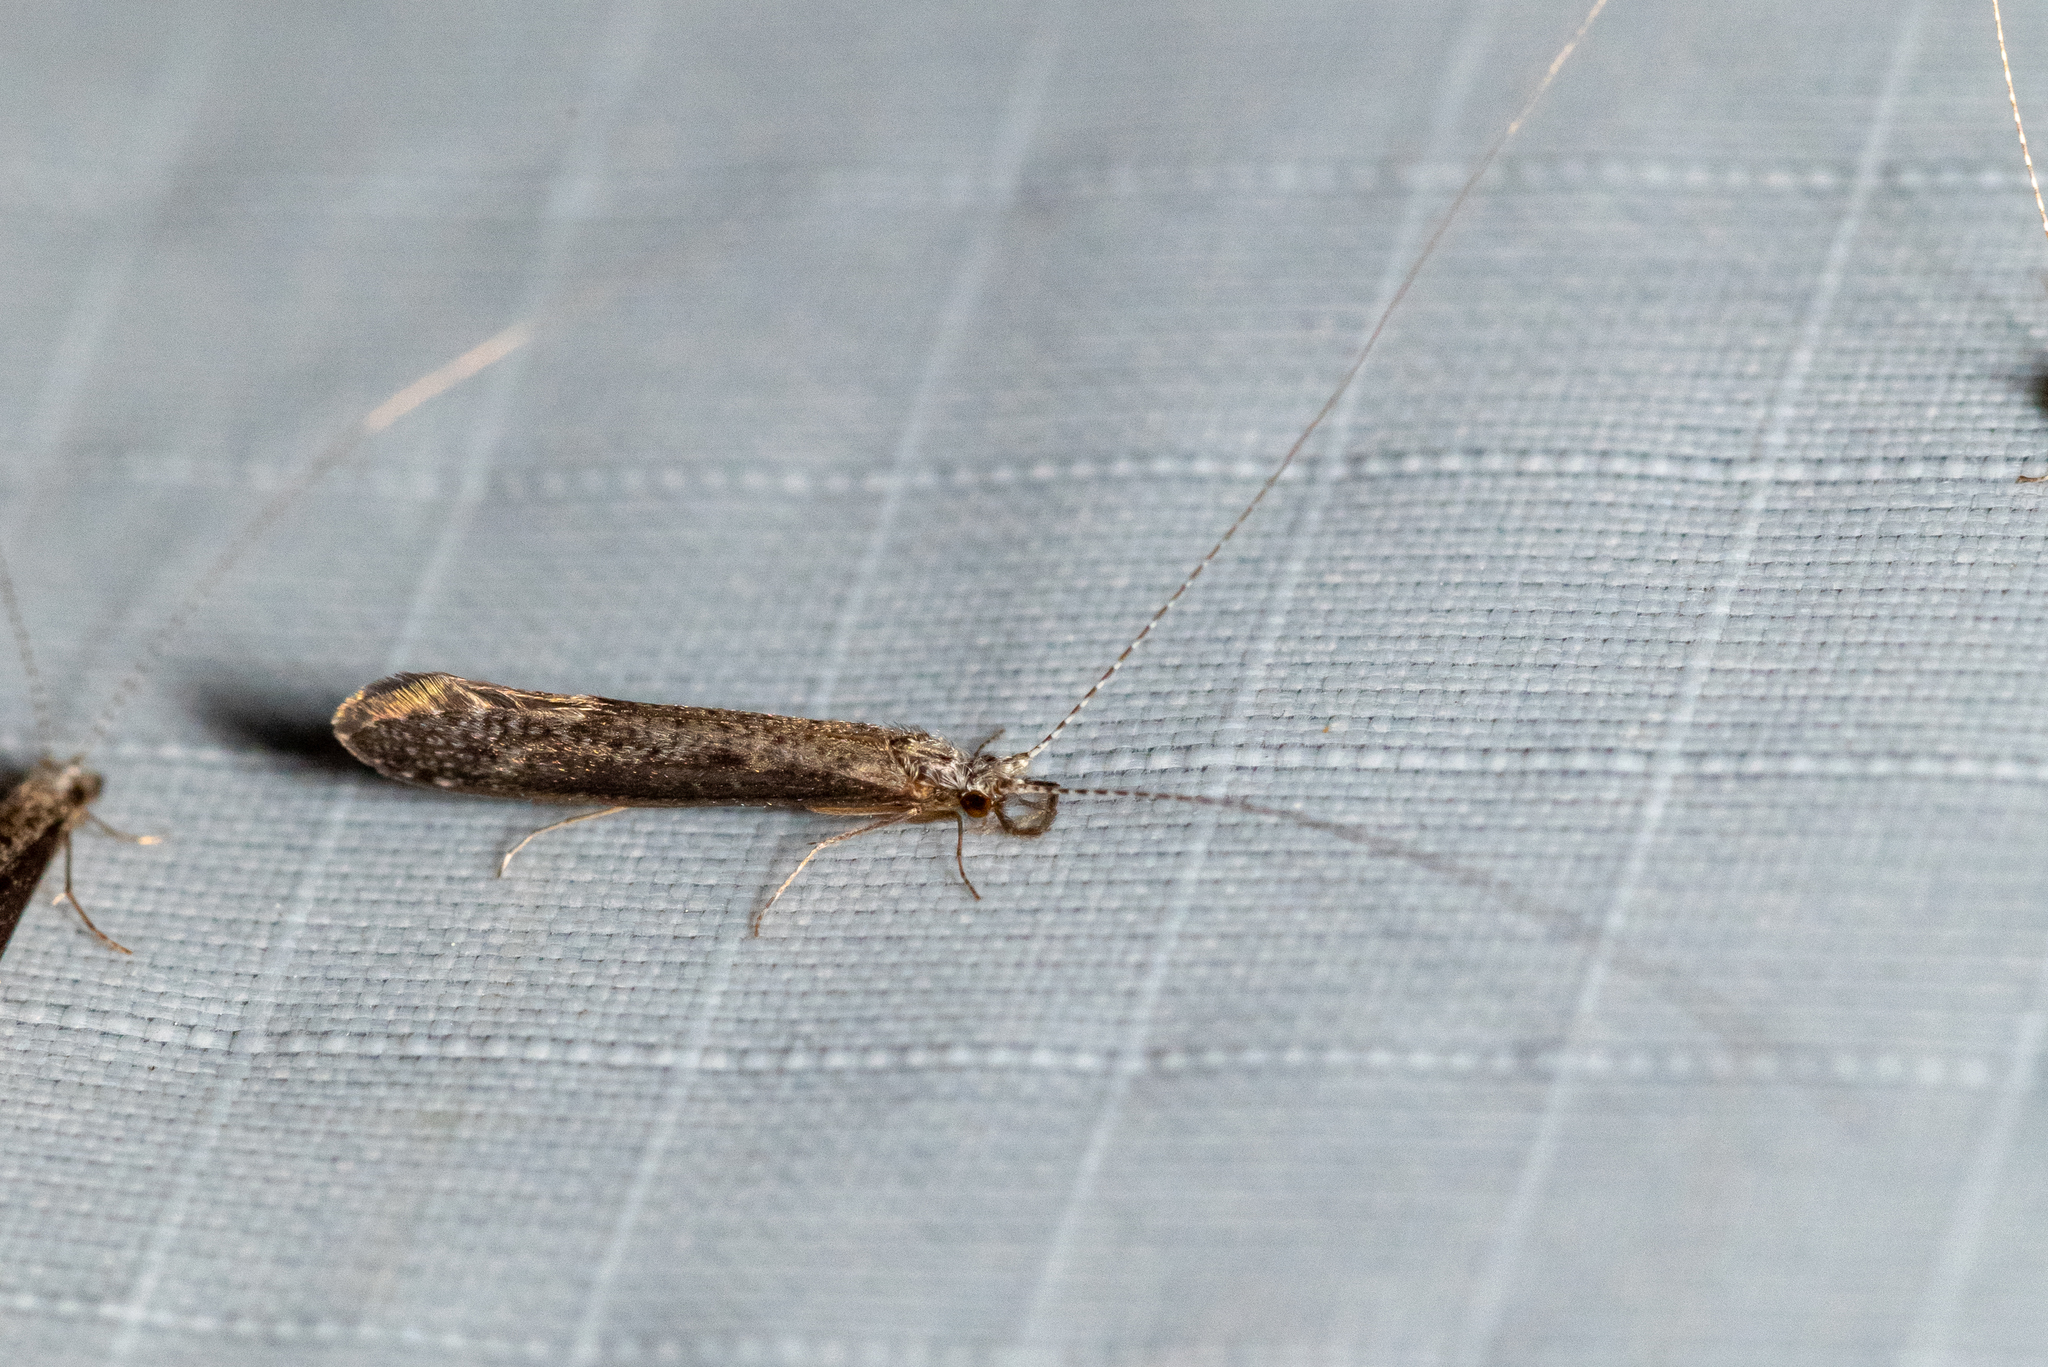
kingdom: Animalia
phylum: Arthropoda
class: Insecta
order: Trichoptera
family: Leptoceridae
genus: Leptocerus
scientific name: Leptocerus americanus
